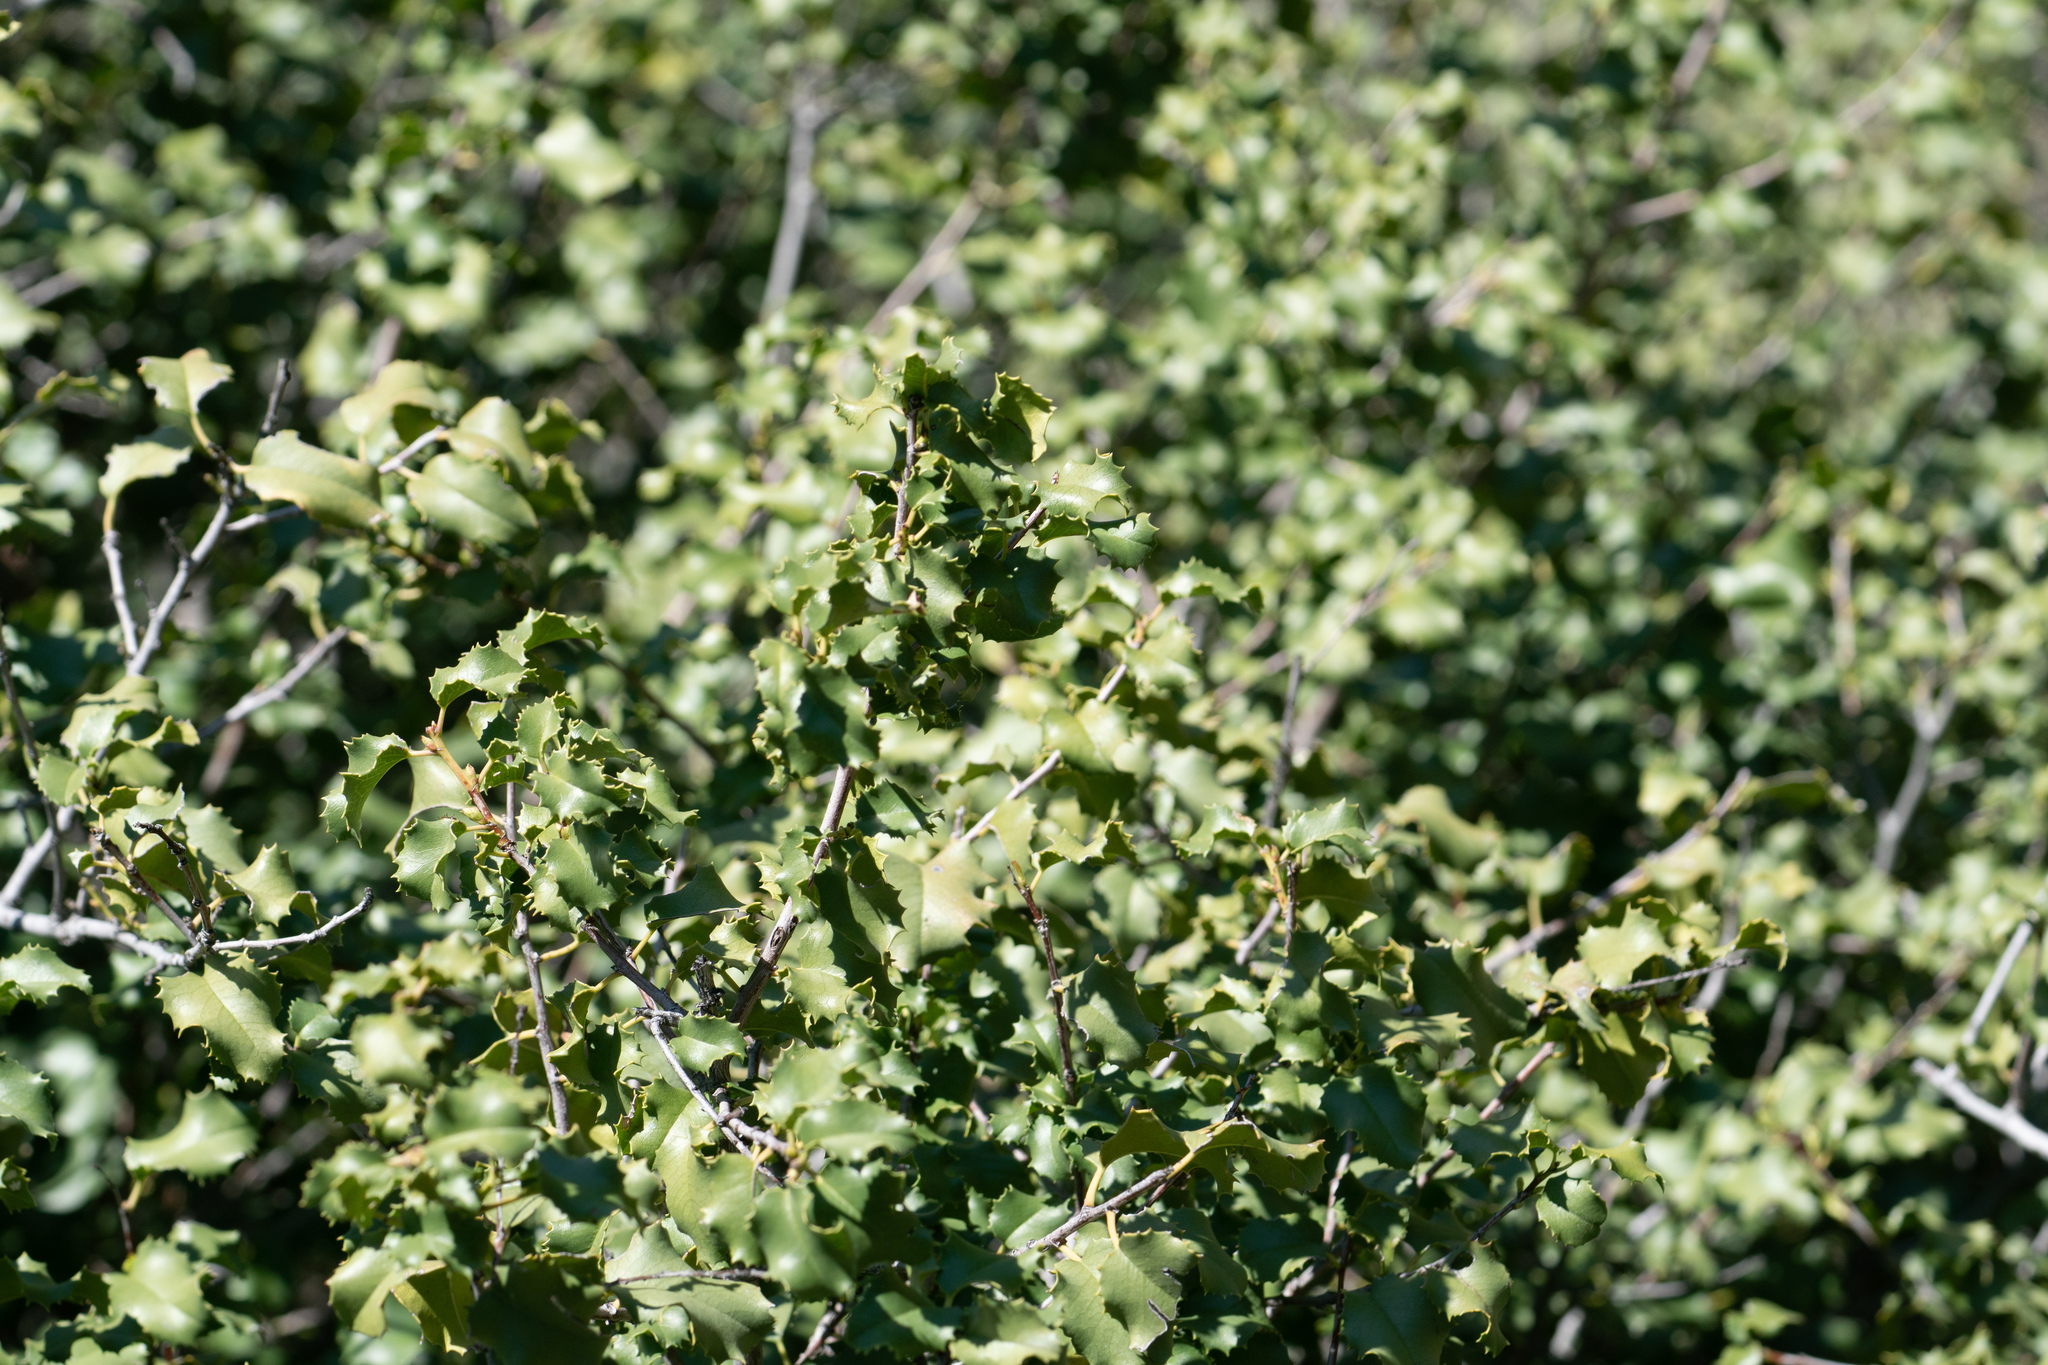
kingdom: Plantae
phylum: Tracheophyta
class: Magnoliopsida
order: Rosales
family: Rosaceae
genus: Prunus
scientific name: Prunus ilicifolia
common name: Hollyleaf cherry
